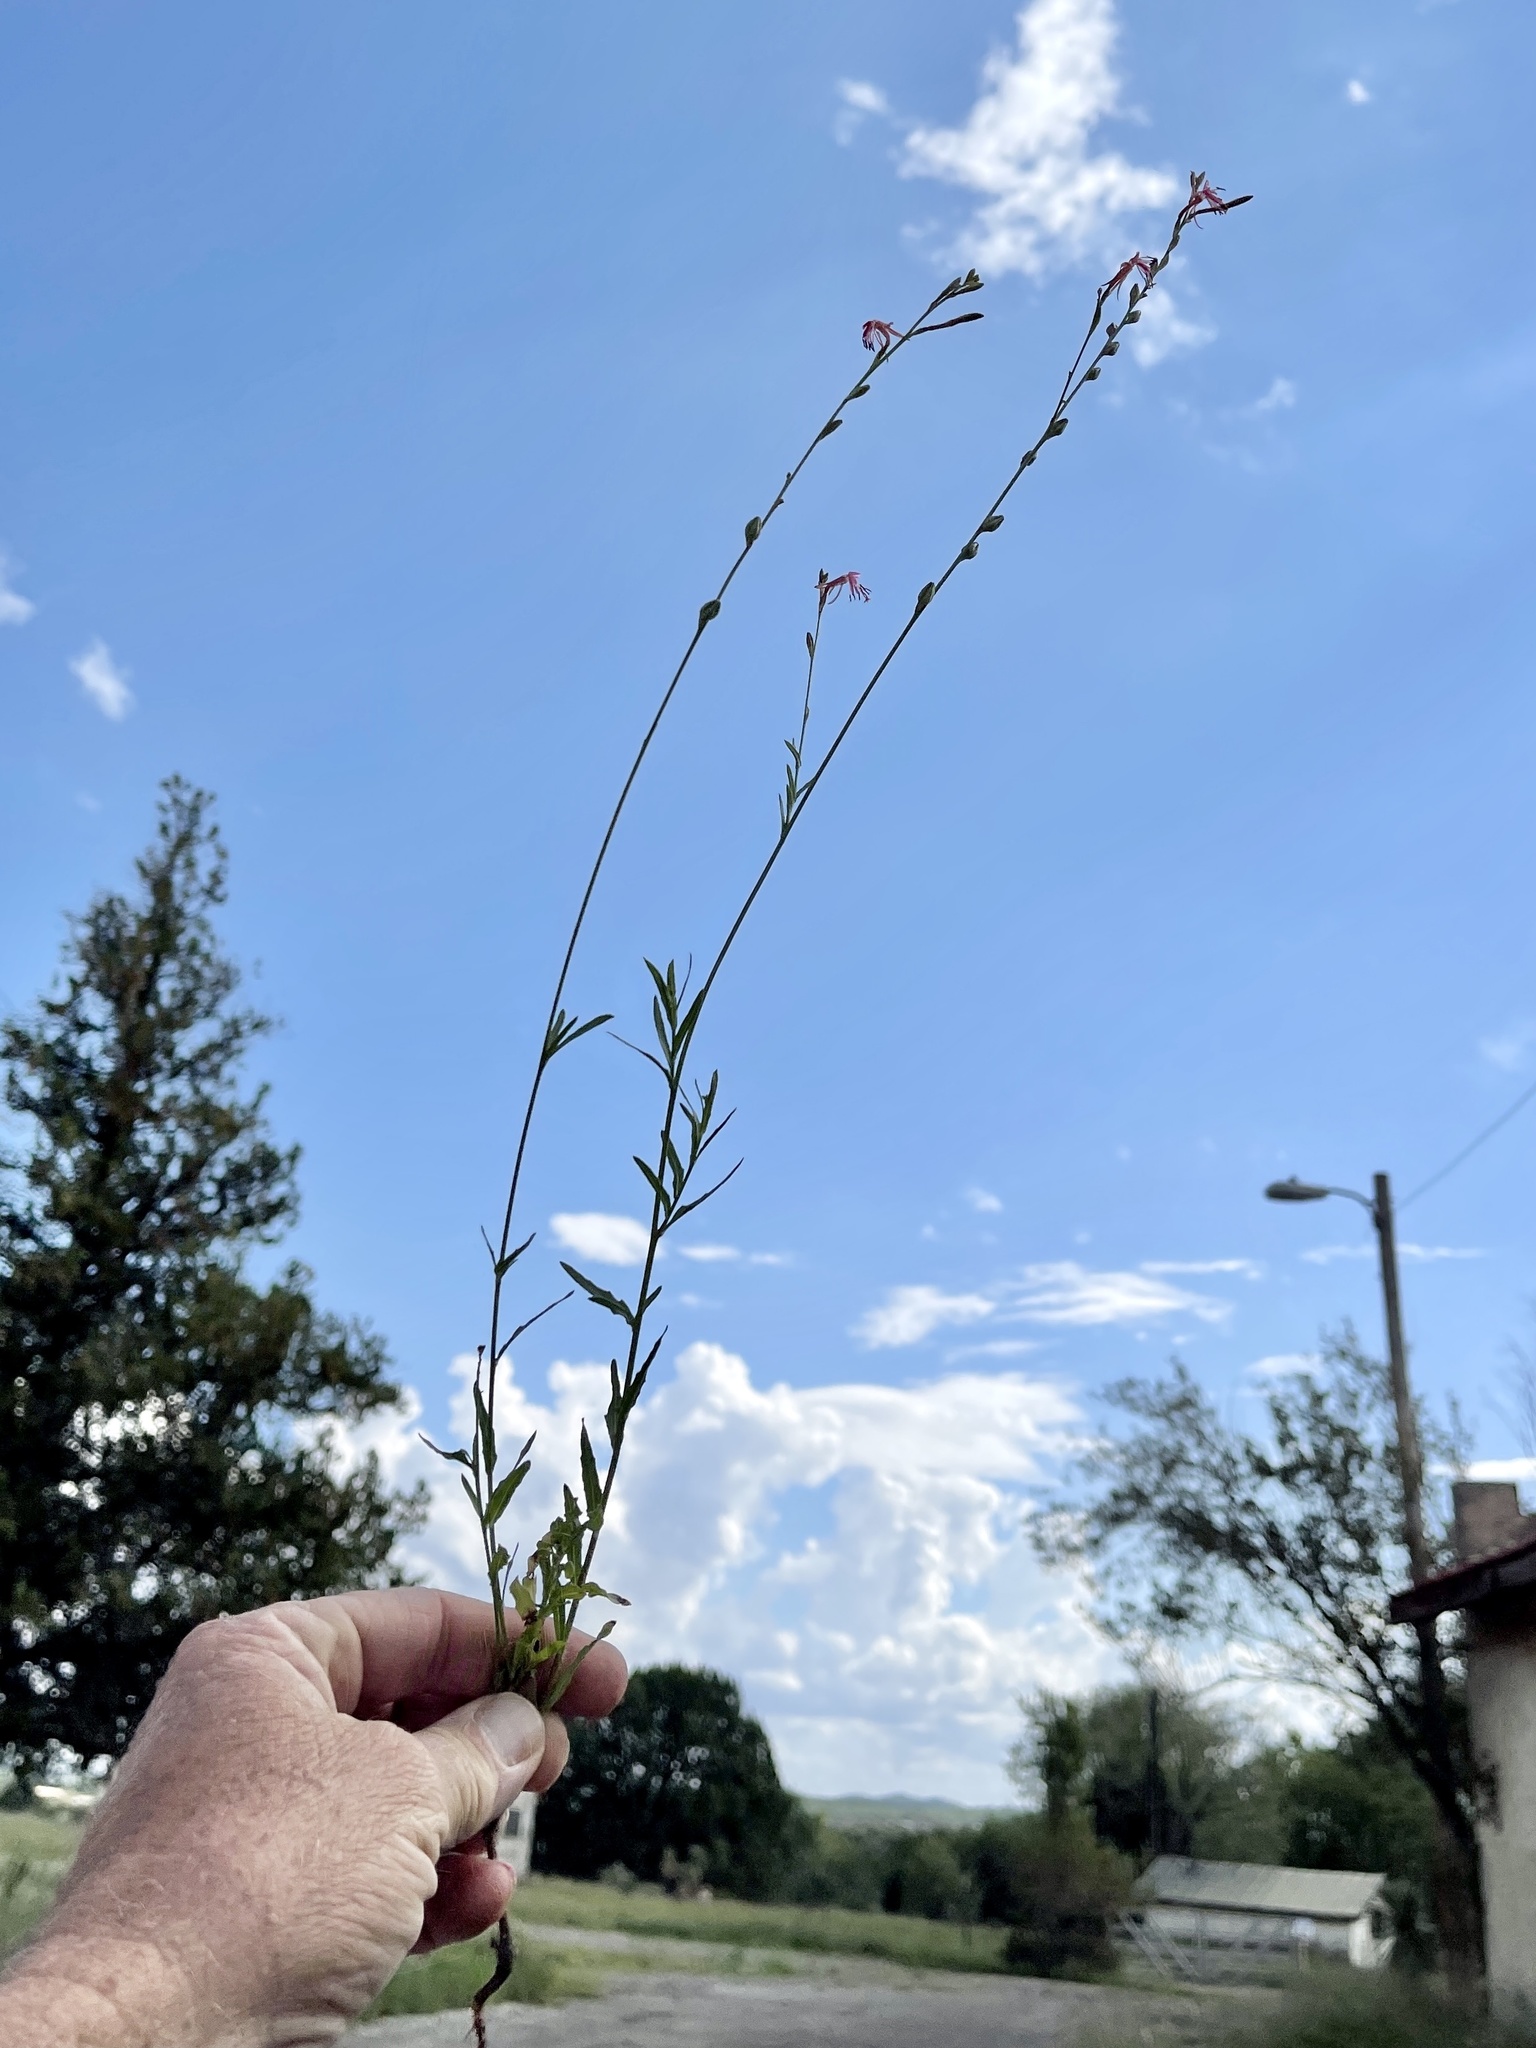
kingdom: Plantae
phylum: Tracheophyta
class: Magnoliopsida
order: Myrtales
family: Onagraceae
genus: Oenothera
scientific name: Oenothera suffrutescens
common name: Scarlet beeblossom
